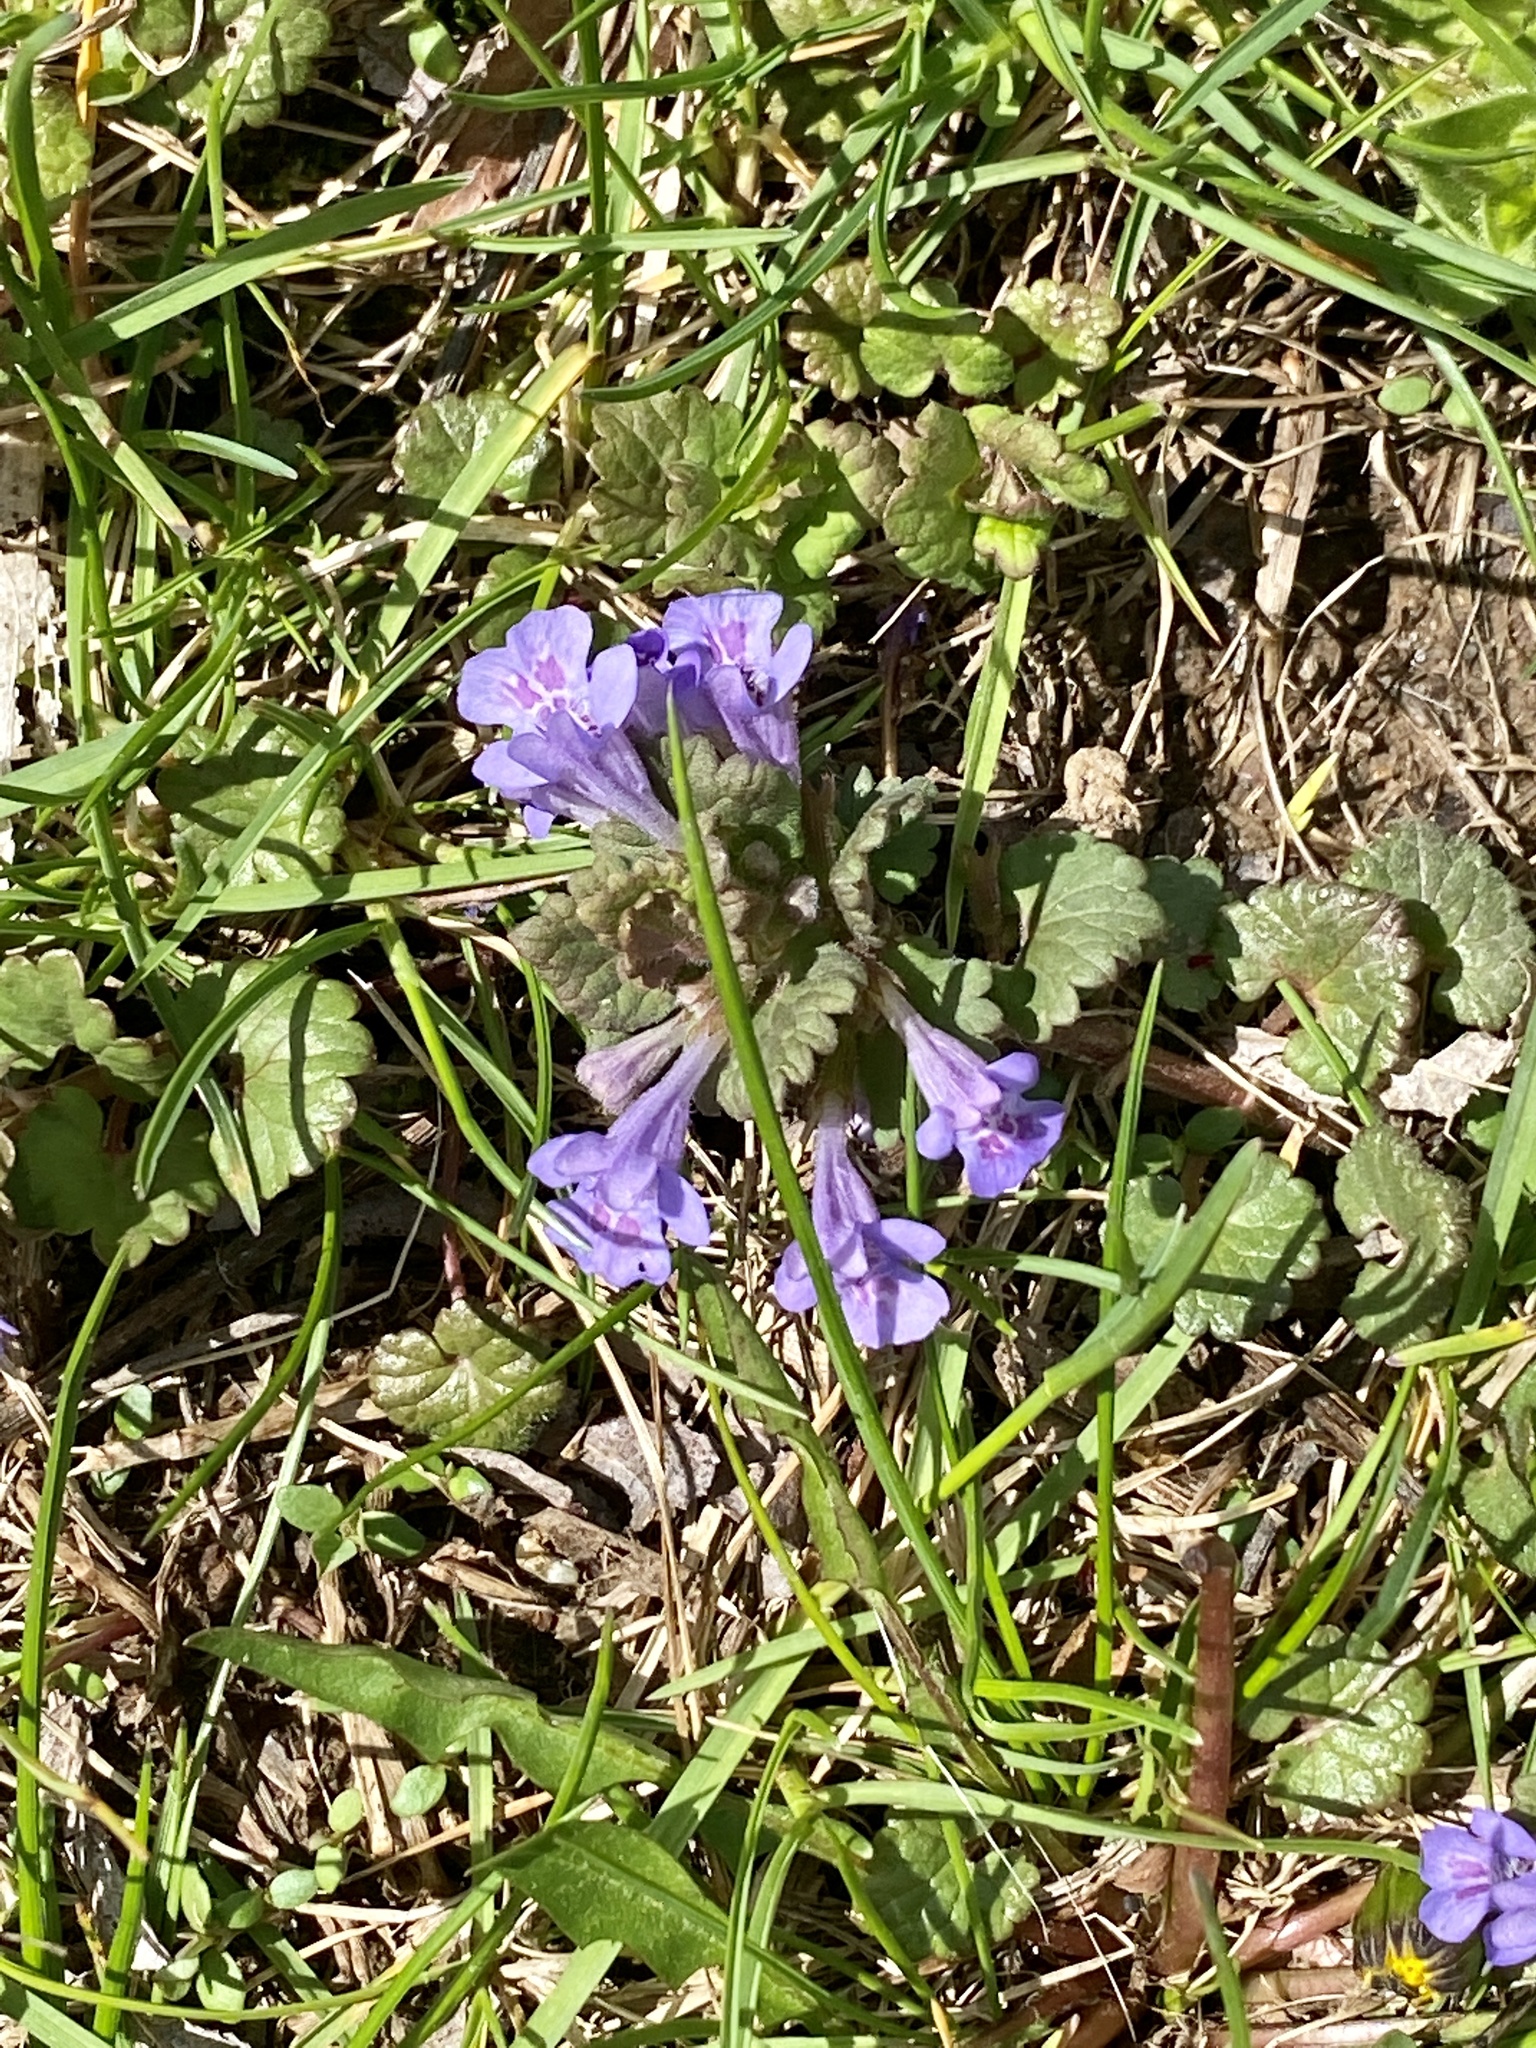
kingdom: Plantae
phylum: Tracheophyta
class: Magnoliopsida
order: Lamiales
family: Lamiaceae
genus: Glechoma
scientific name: Glechoma hederacea
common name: Ground ivy
